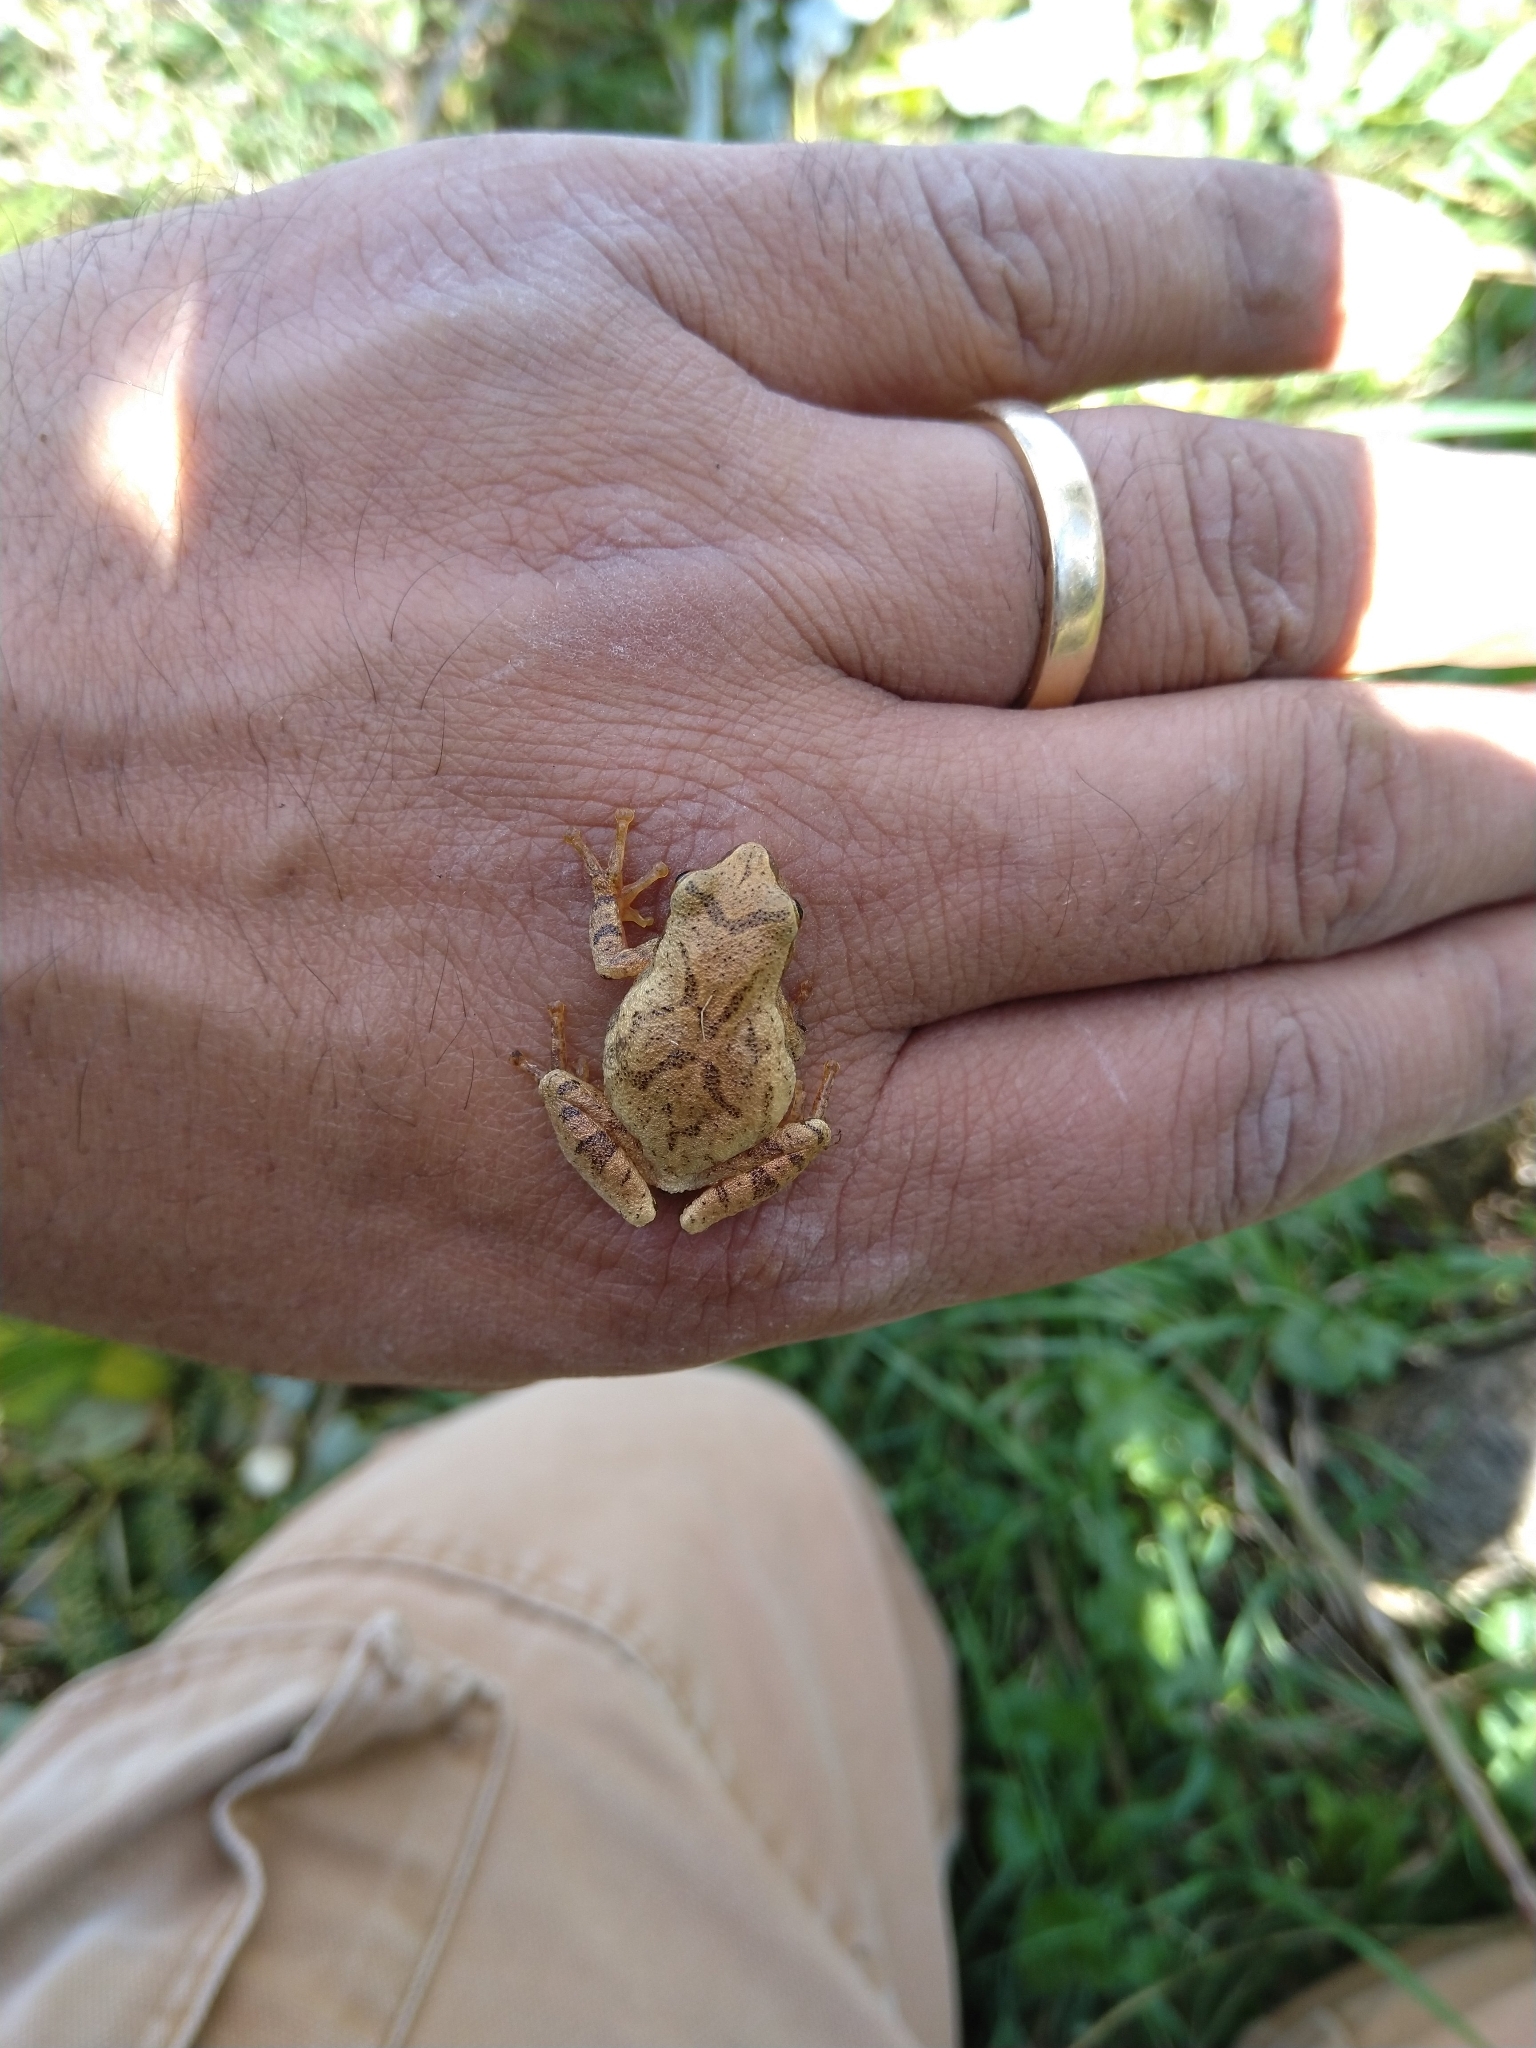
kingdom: Animalia
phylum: Chordata
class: Amphibia
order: Anura
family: Hylidae
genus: Pseudacris
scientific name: Pseudacris crucifer
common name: Spring peeper
